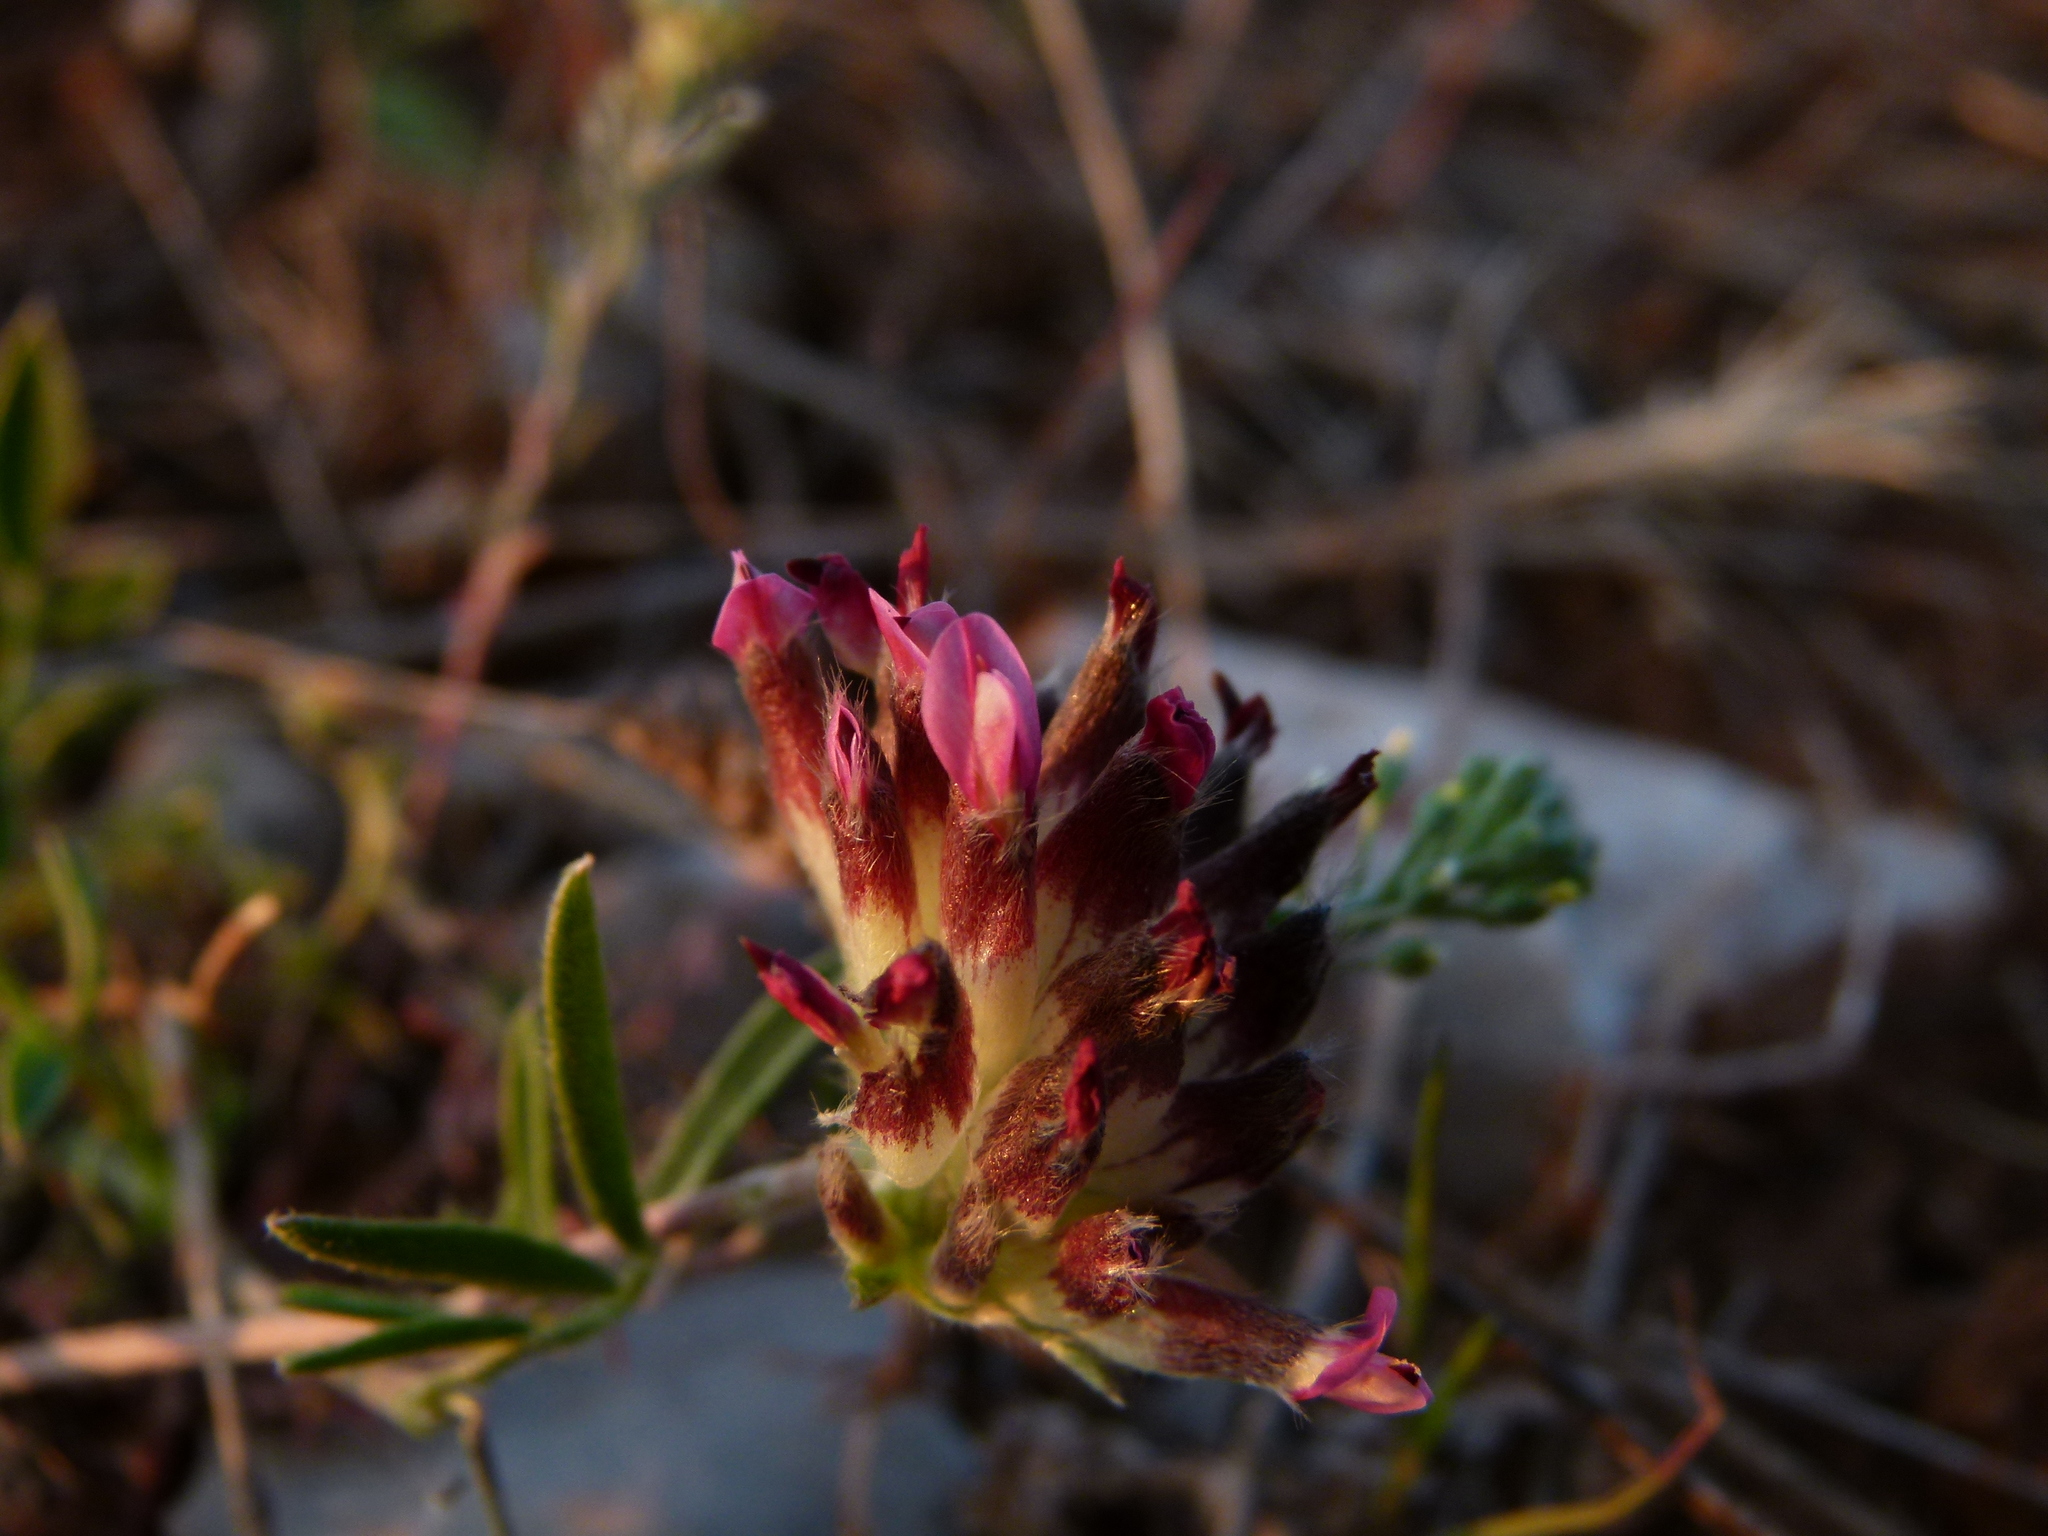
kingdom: Plantae
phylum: Tracheophyta
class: Magnoliopsida
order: Fabales
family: Fabaceae
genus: Anthyllis
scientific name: Anthyllis vulneraria
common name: Kidney vetch
